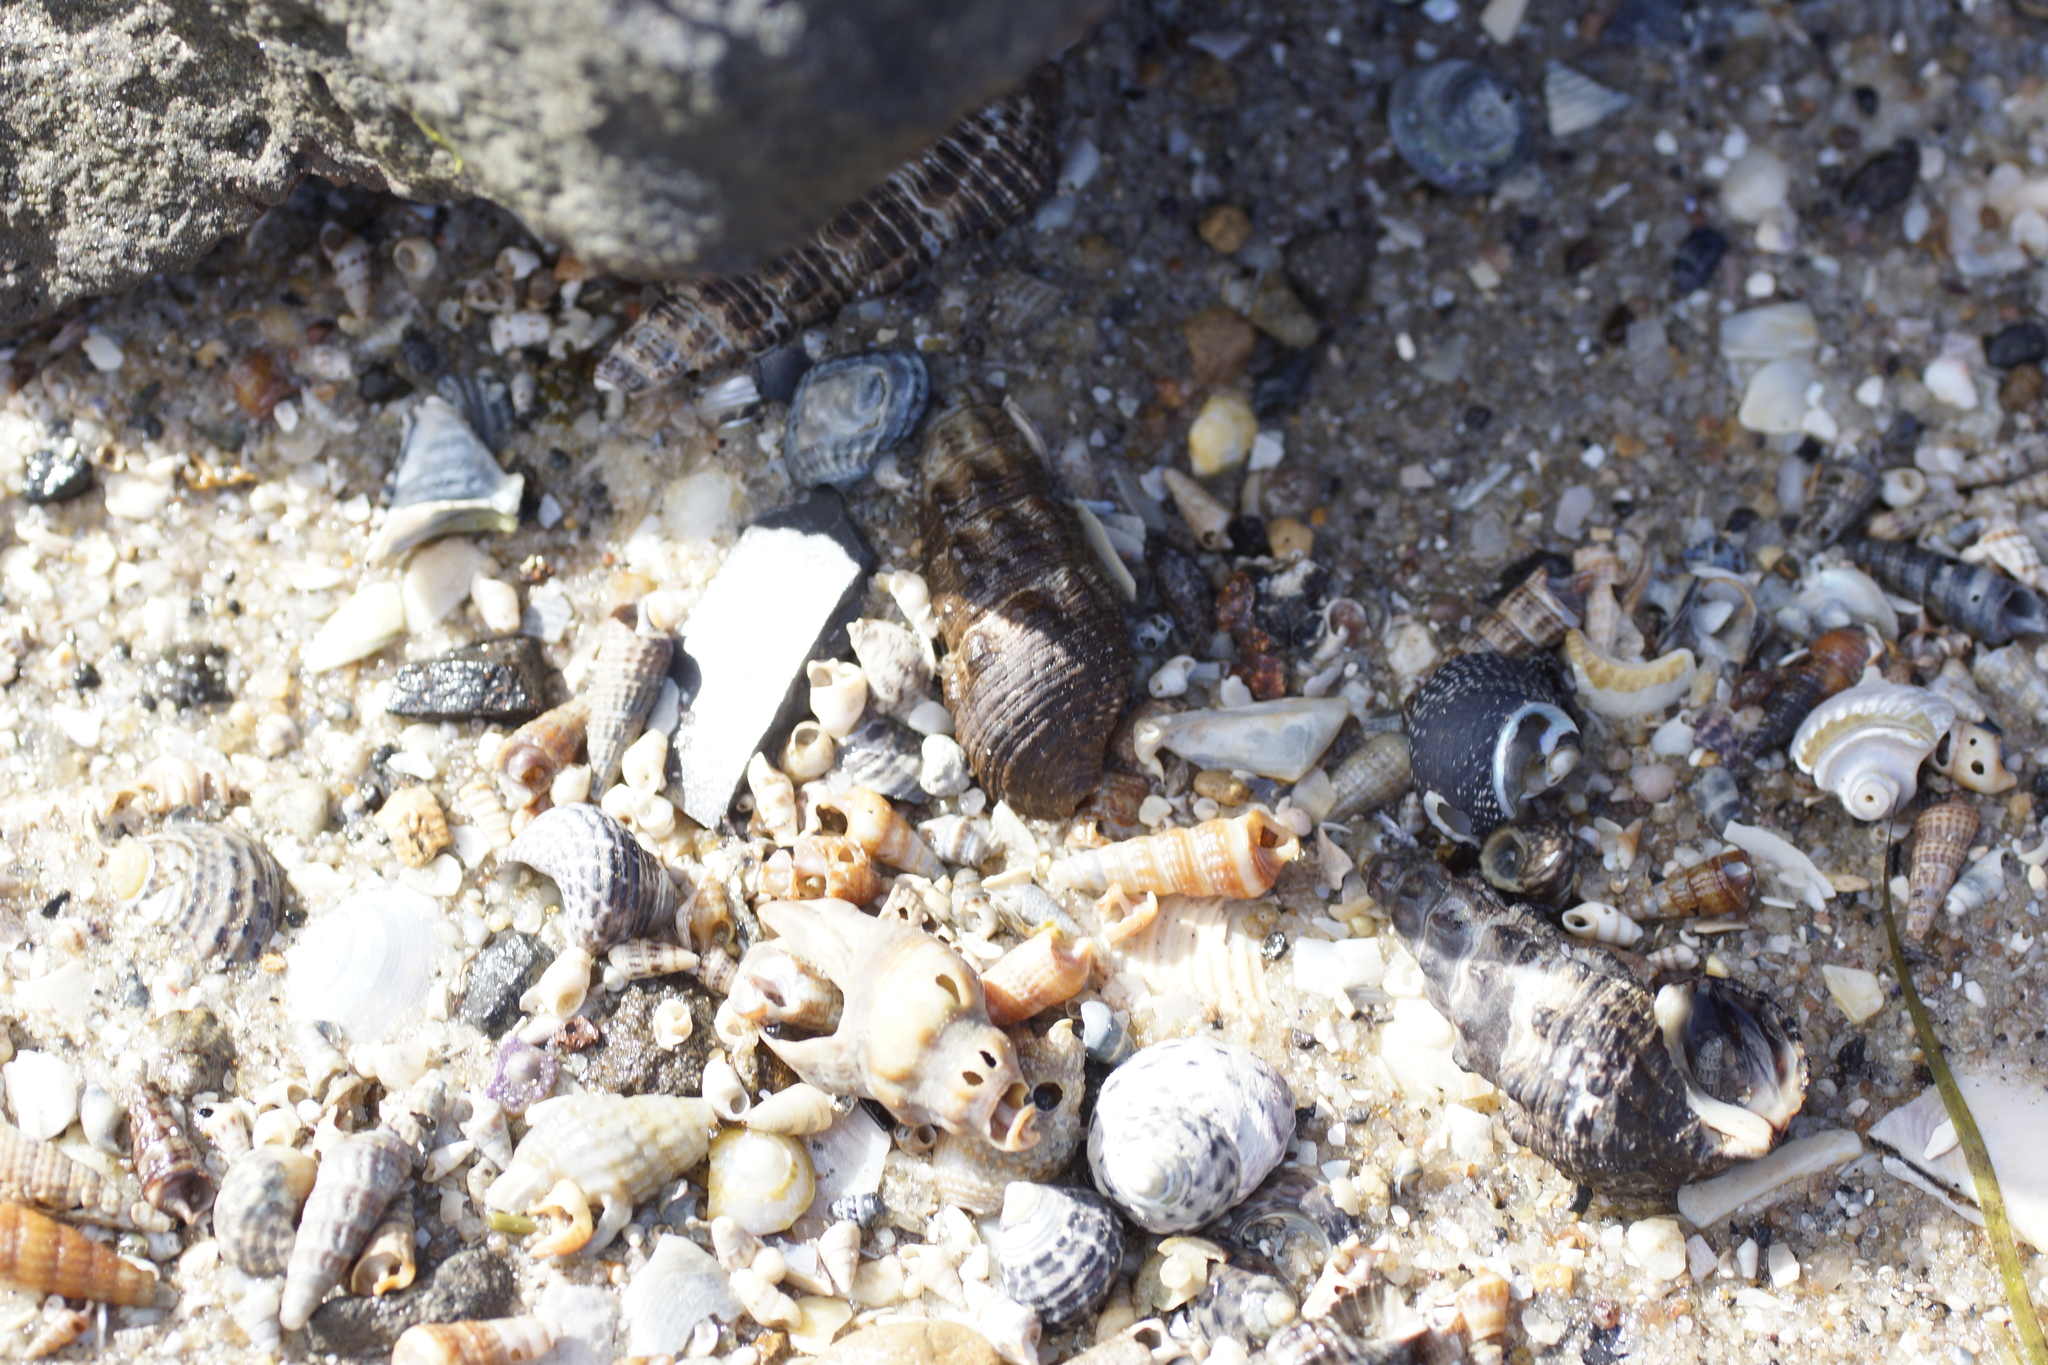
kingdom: Animalia
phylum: Mollusca
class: Gastropoda
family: Batillariidae
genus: Batillaria
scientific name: Batillaria australis
